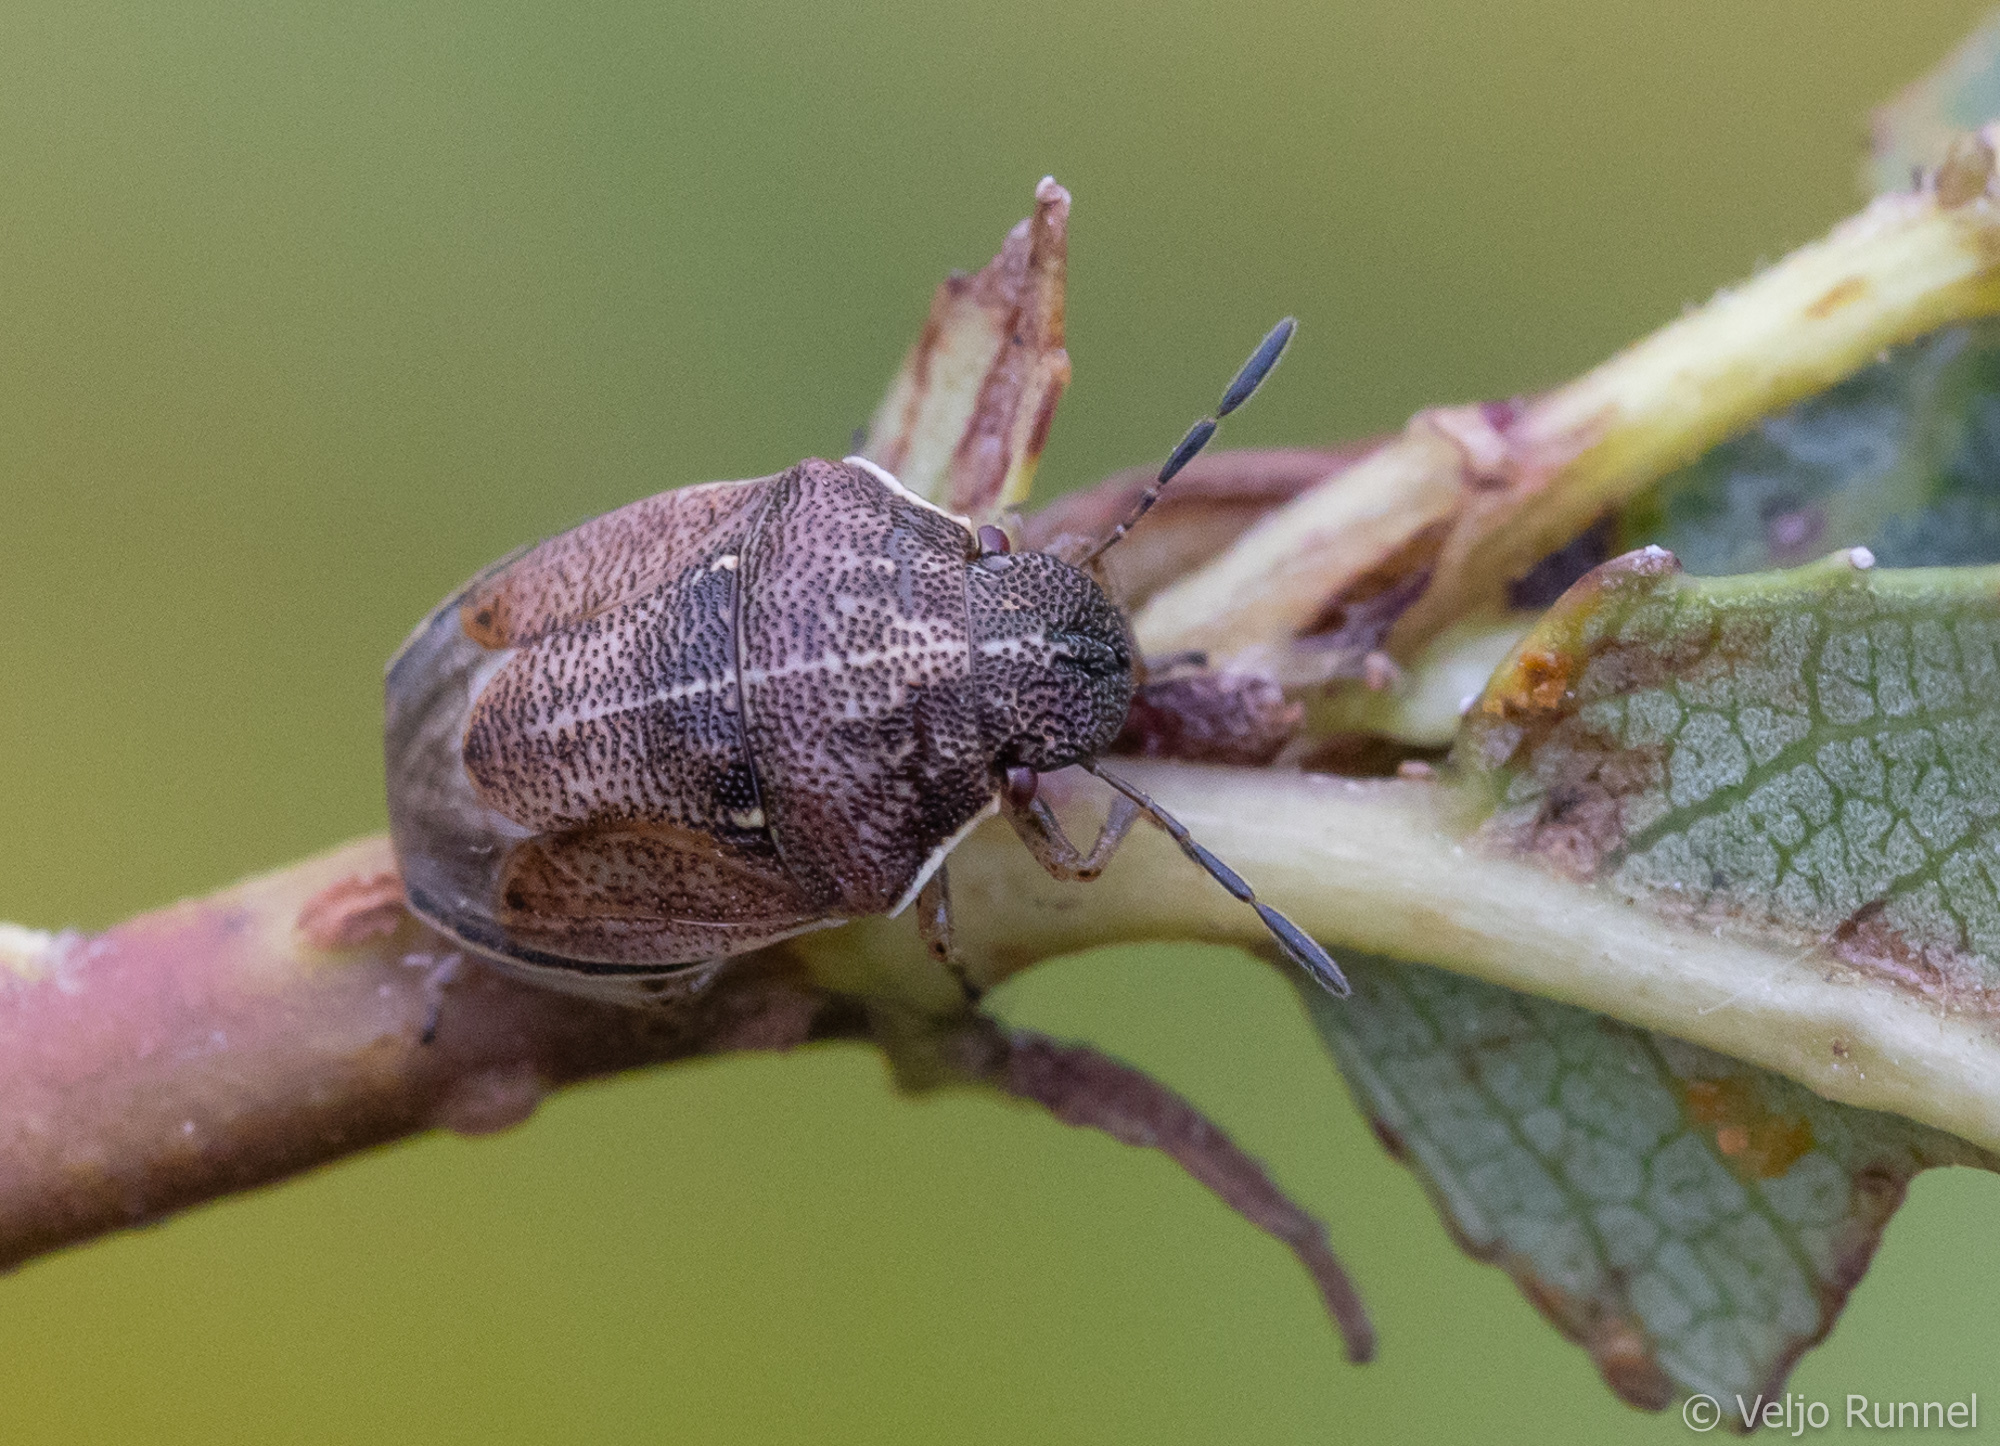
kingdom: Animalia
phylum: Arthropoda
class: Insecta
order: Hemiptera
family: Pentatomidae
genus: Neottiglossa
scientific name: Neottiglossa pusilla
